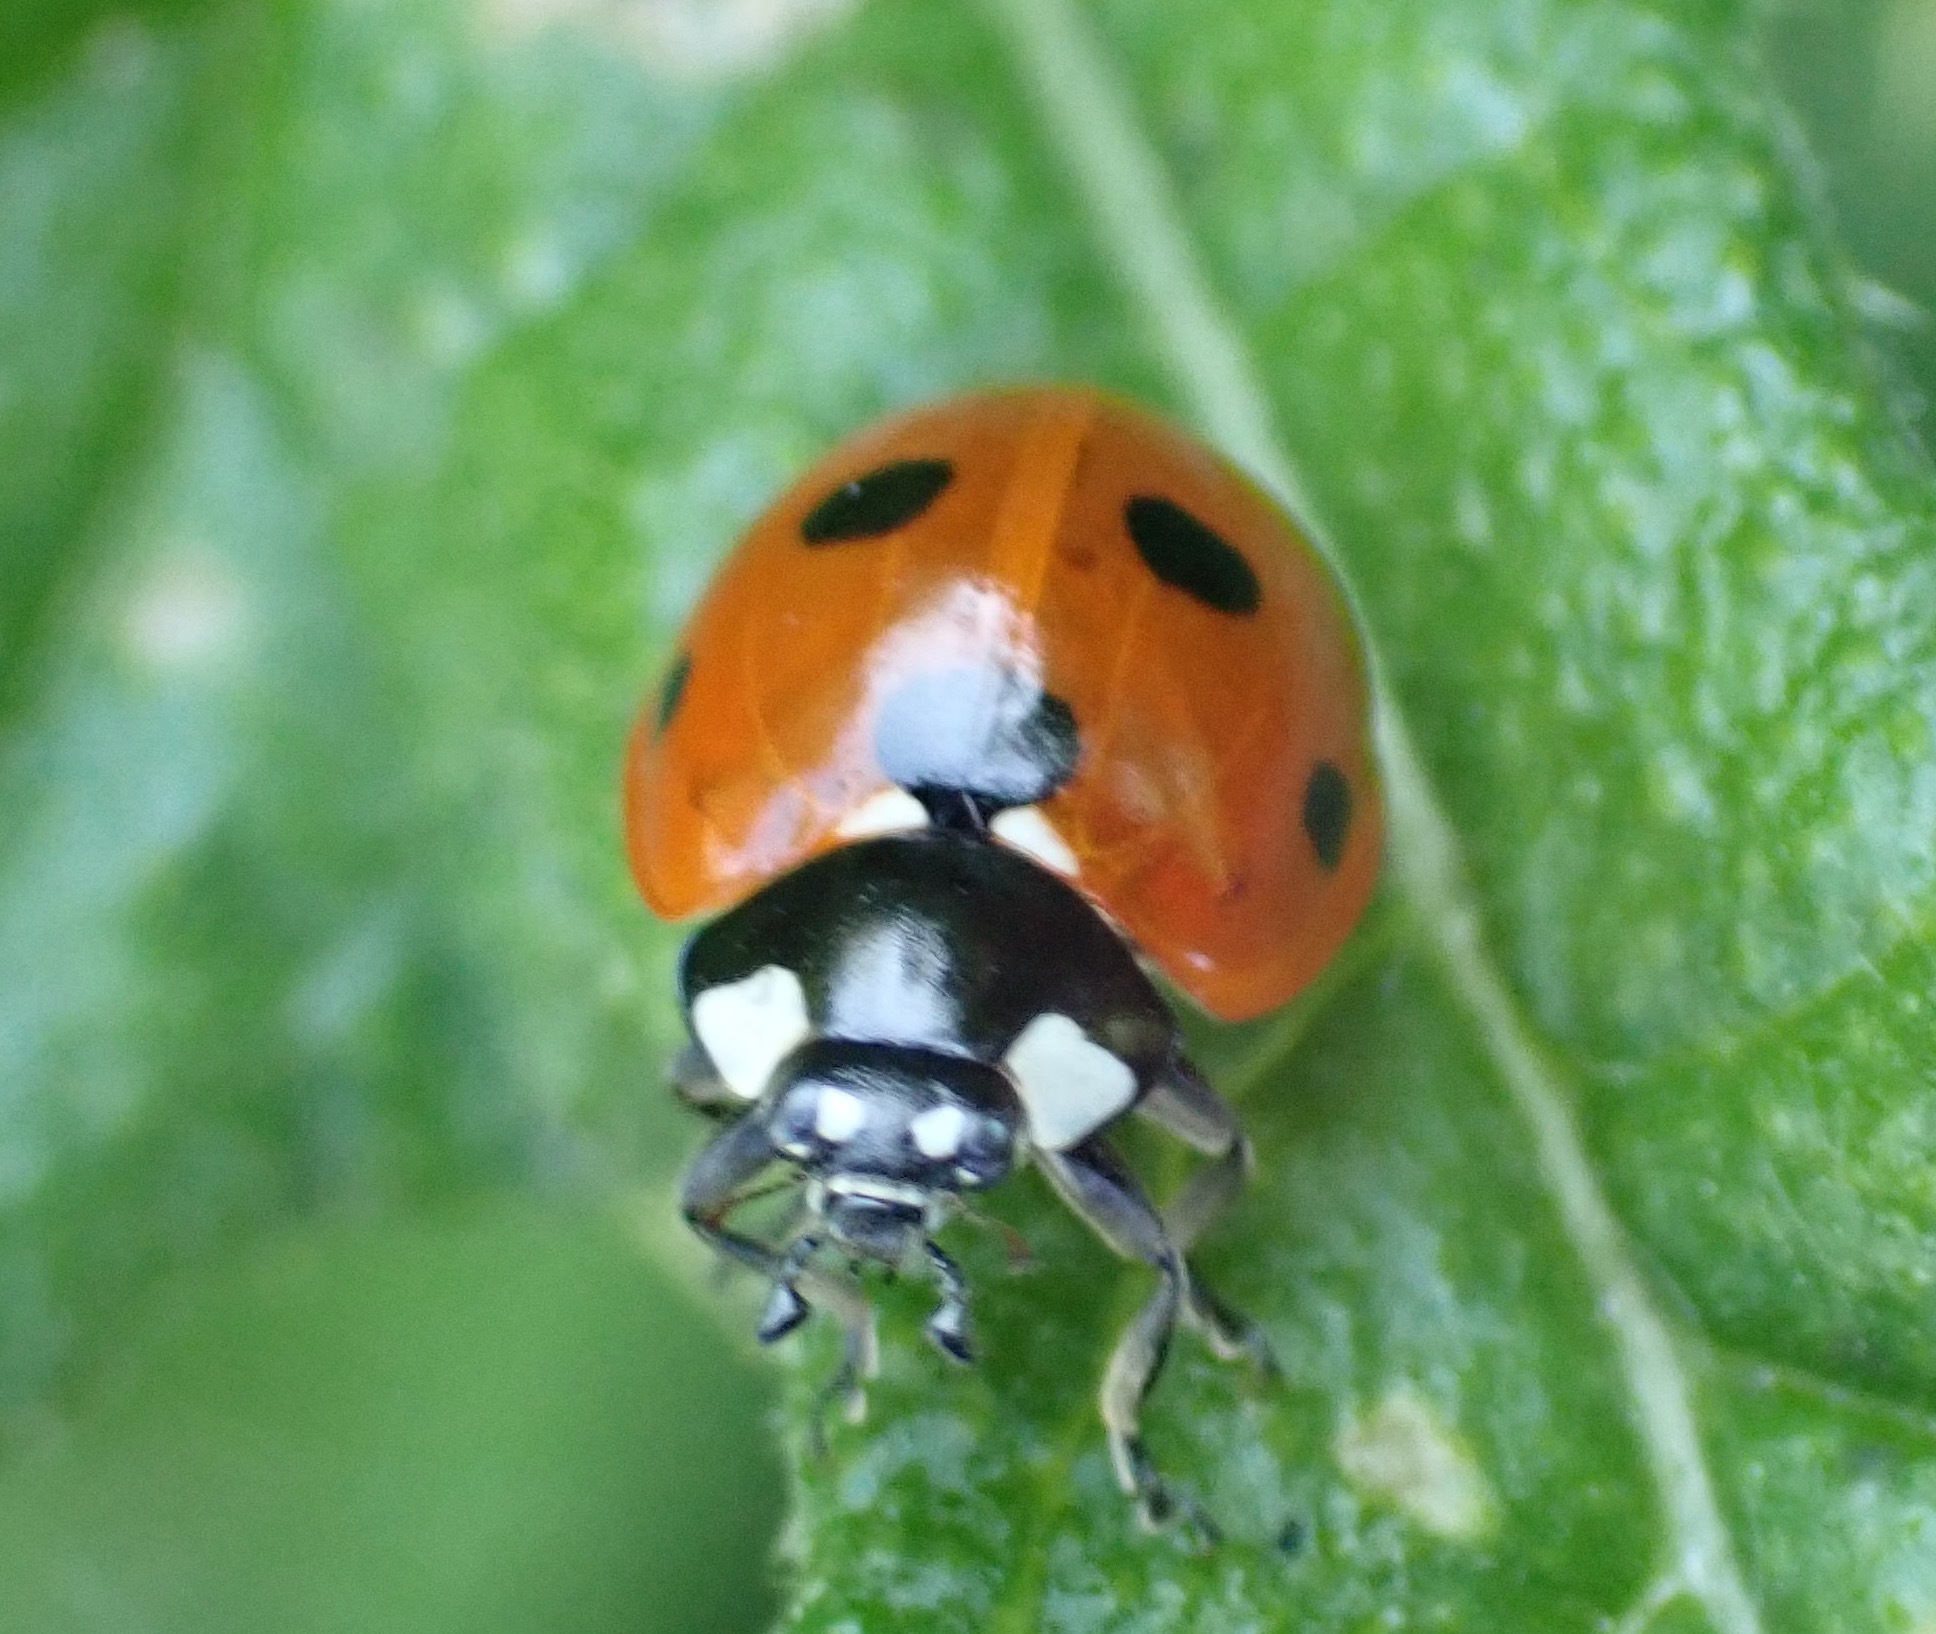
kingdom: Animalia
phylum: Arthropoda
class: Insecta
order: Coleoptera
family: Coccinellidae
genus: Coccinella
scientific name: Coccinella septempunctata
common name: Sevenspotted lady beetle
